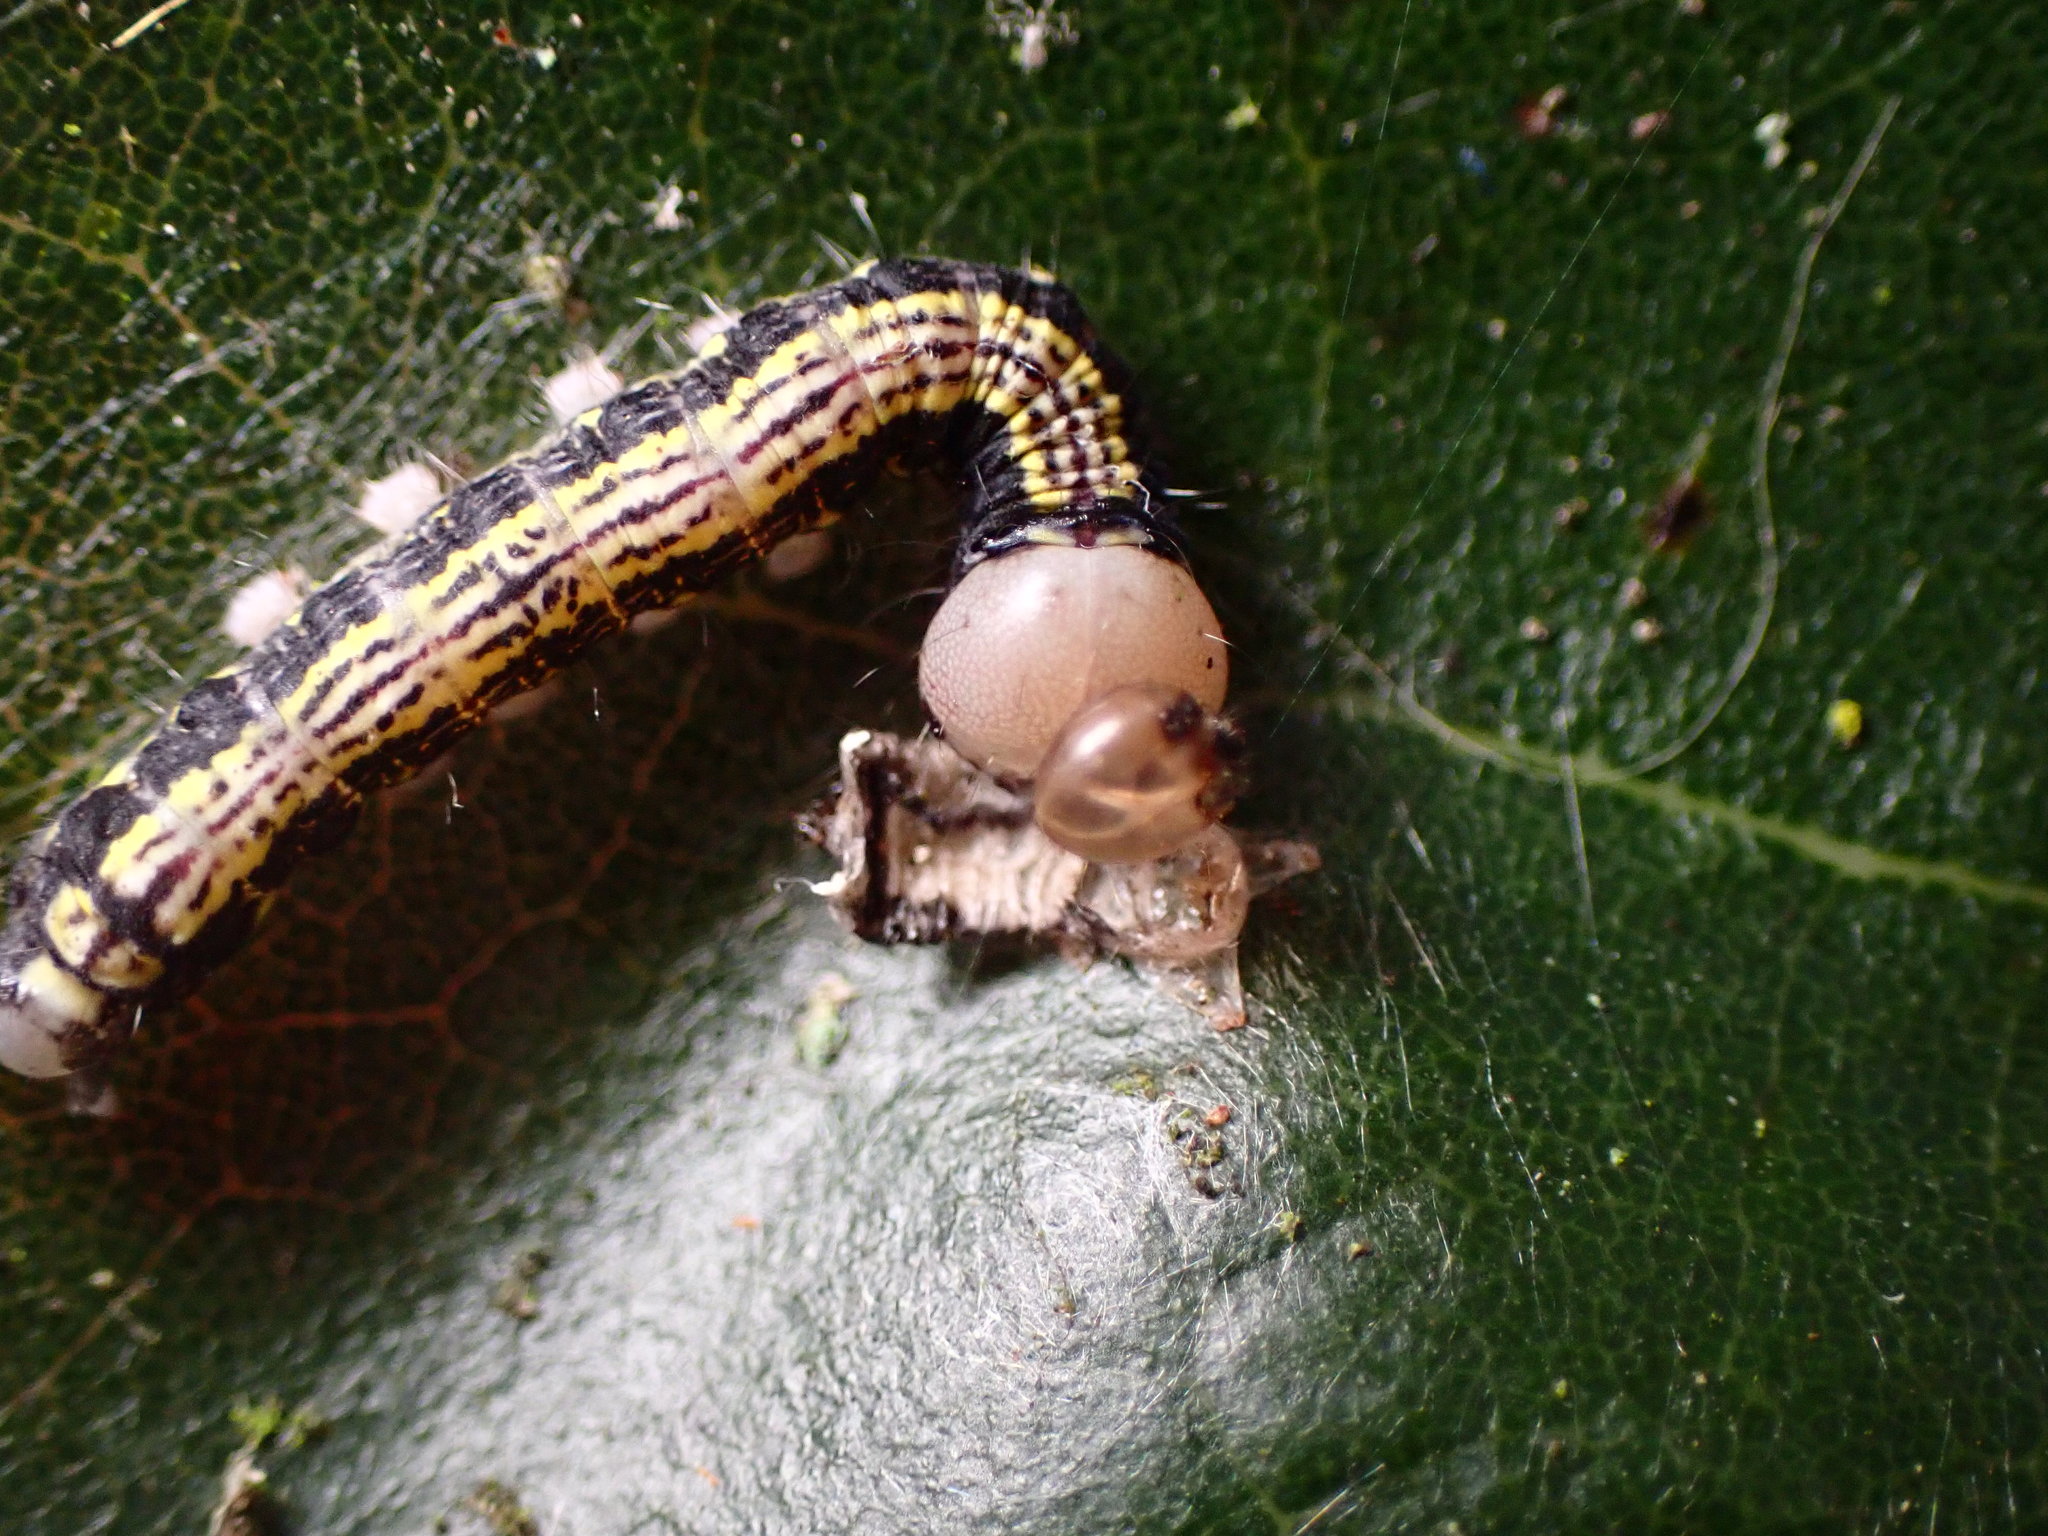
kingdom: Animalia
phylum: Arthropoda
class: Insecta
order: Lepidoptera
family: Notodontidae
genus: Phryganidia
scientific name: Phryganidia californica
